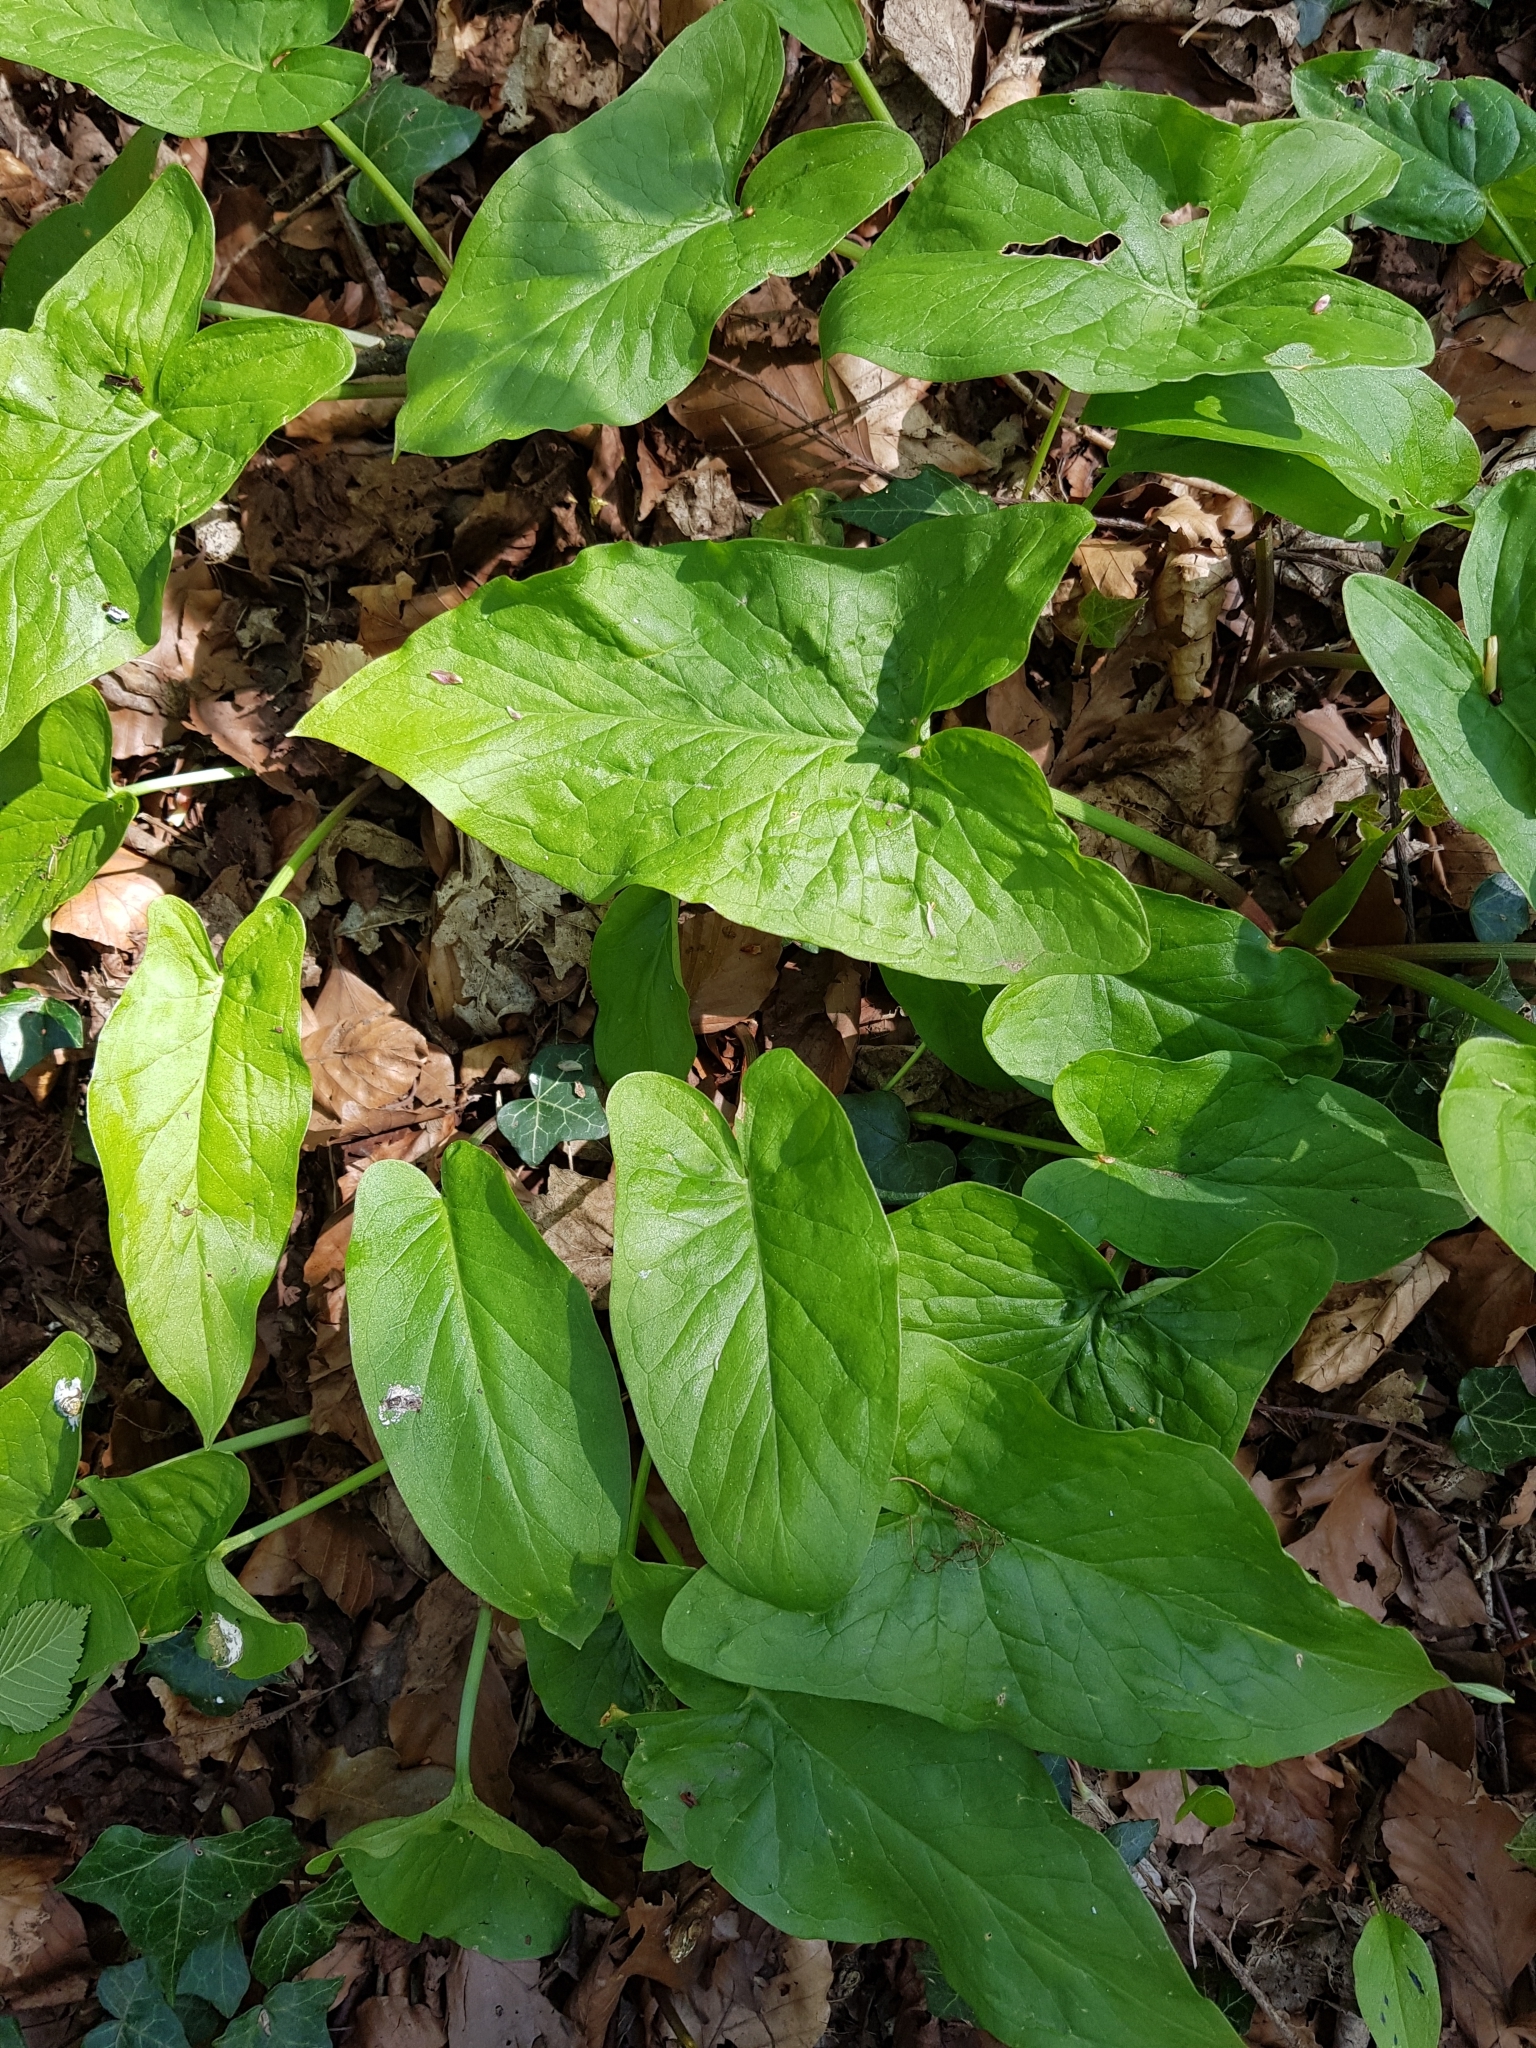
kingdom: Plantae
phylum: Tracheophyta
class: Liliopsida
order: Alismatales
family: Araceae
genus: Arum
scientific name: Arum maculatum
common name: Lords-and-ladies
